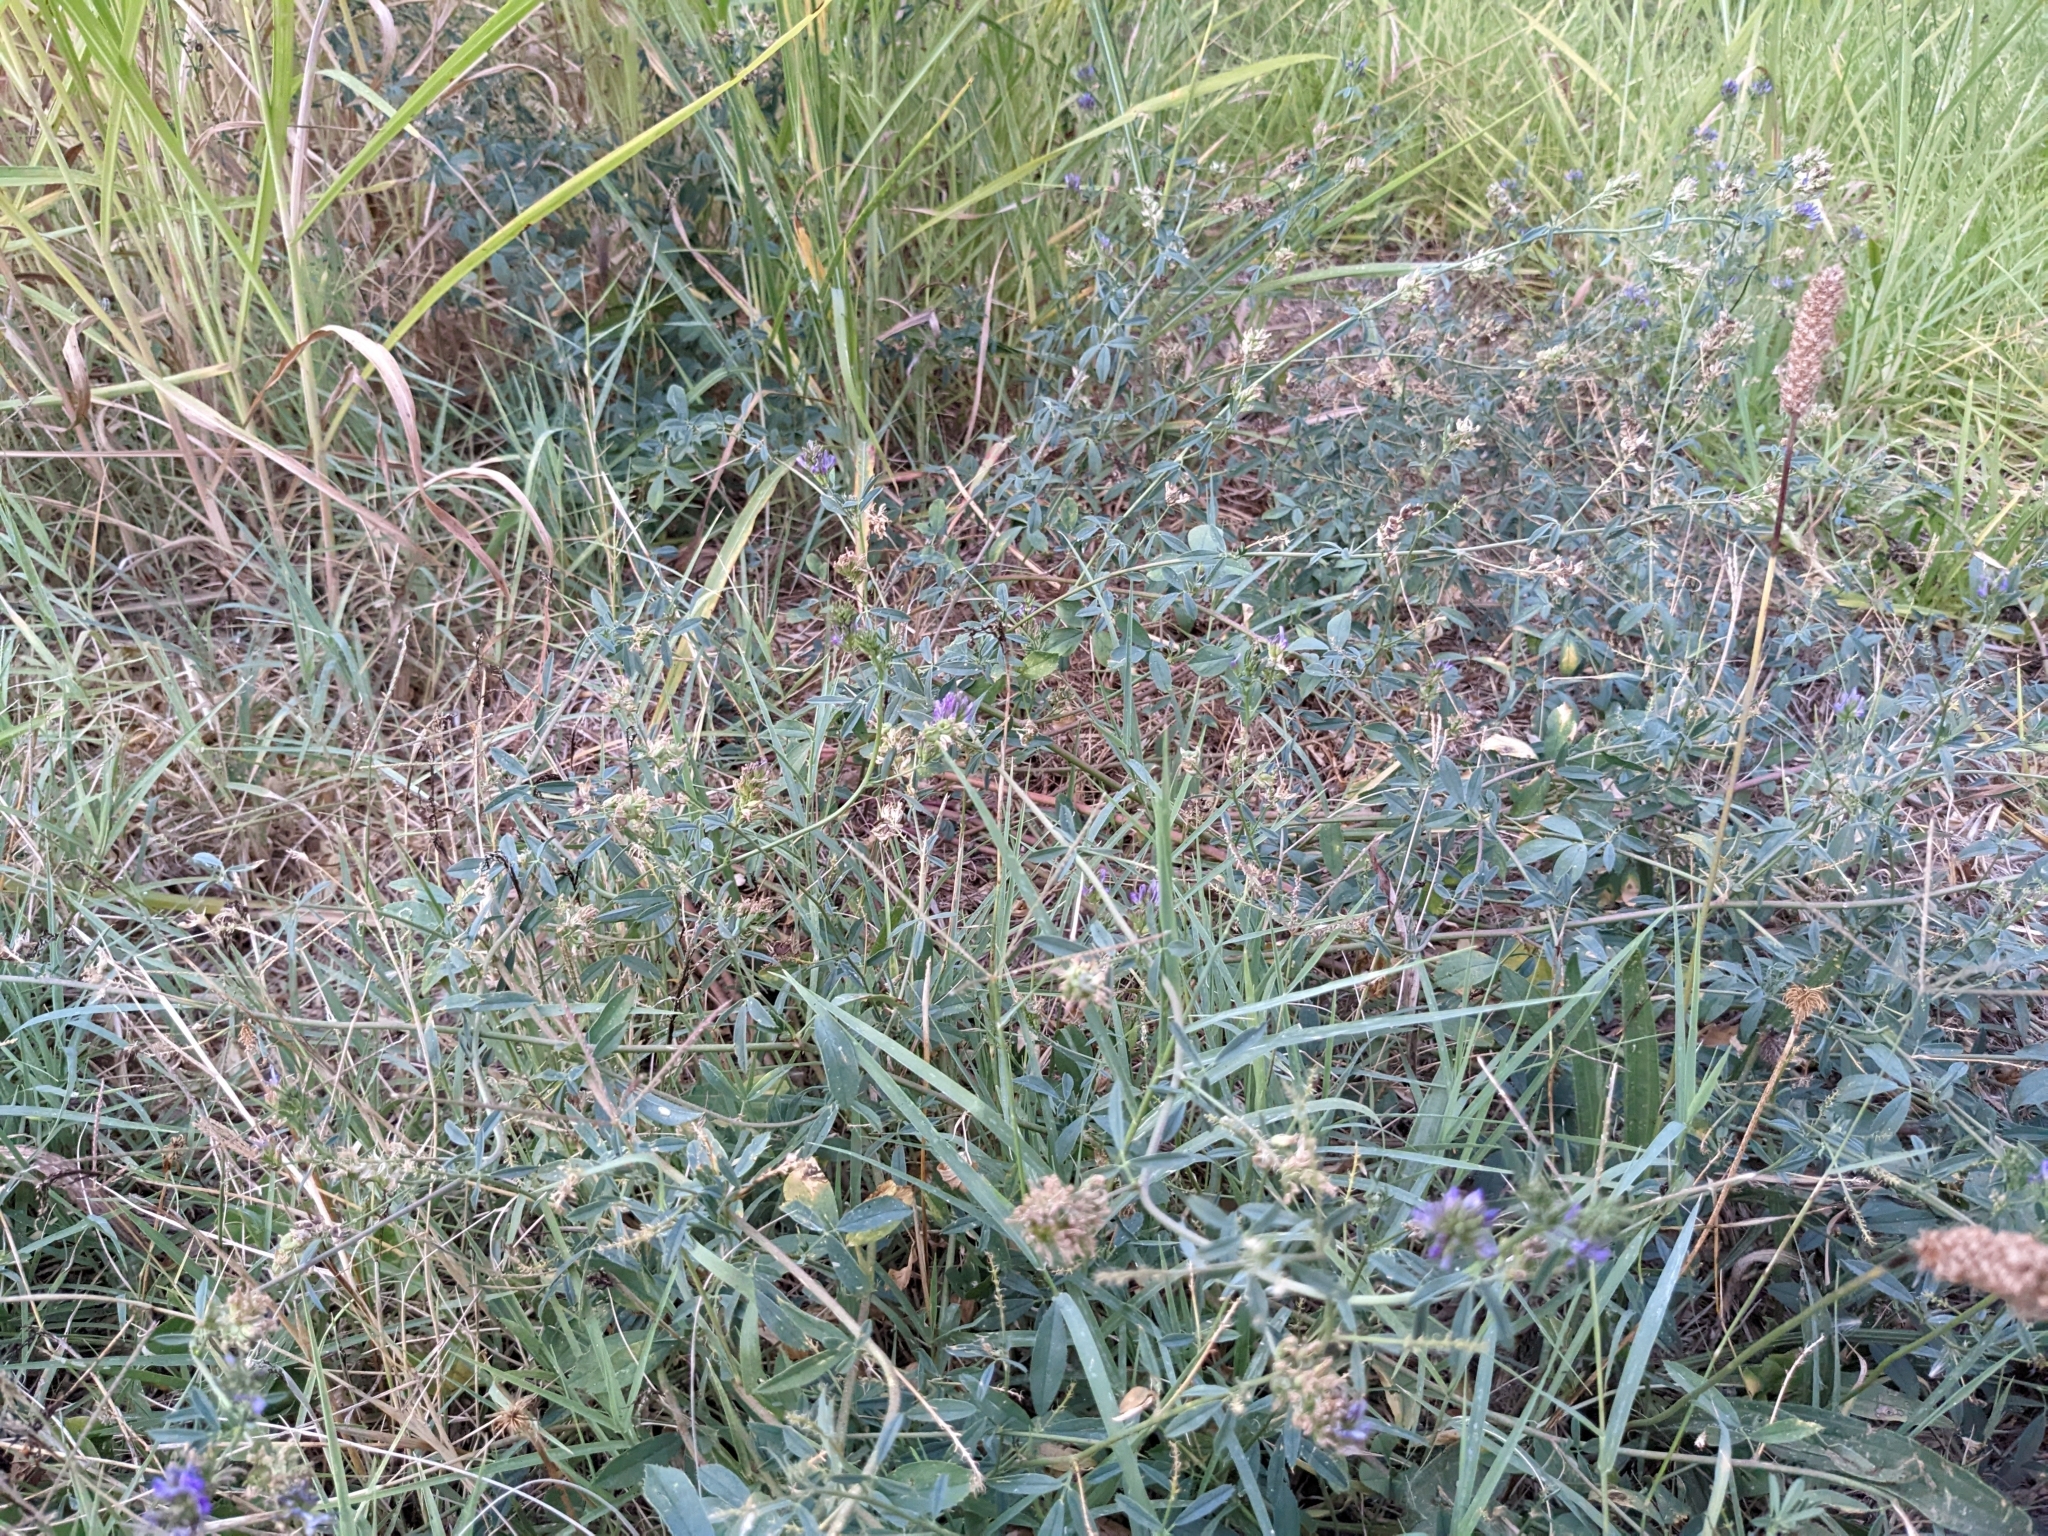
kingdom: Plantae
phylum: Tracheophyta
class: Magnoliopsida
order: Fabales
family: Fabaceae
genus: Medicago
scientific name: Medicago sativa
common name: Alfalfa
